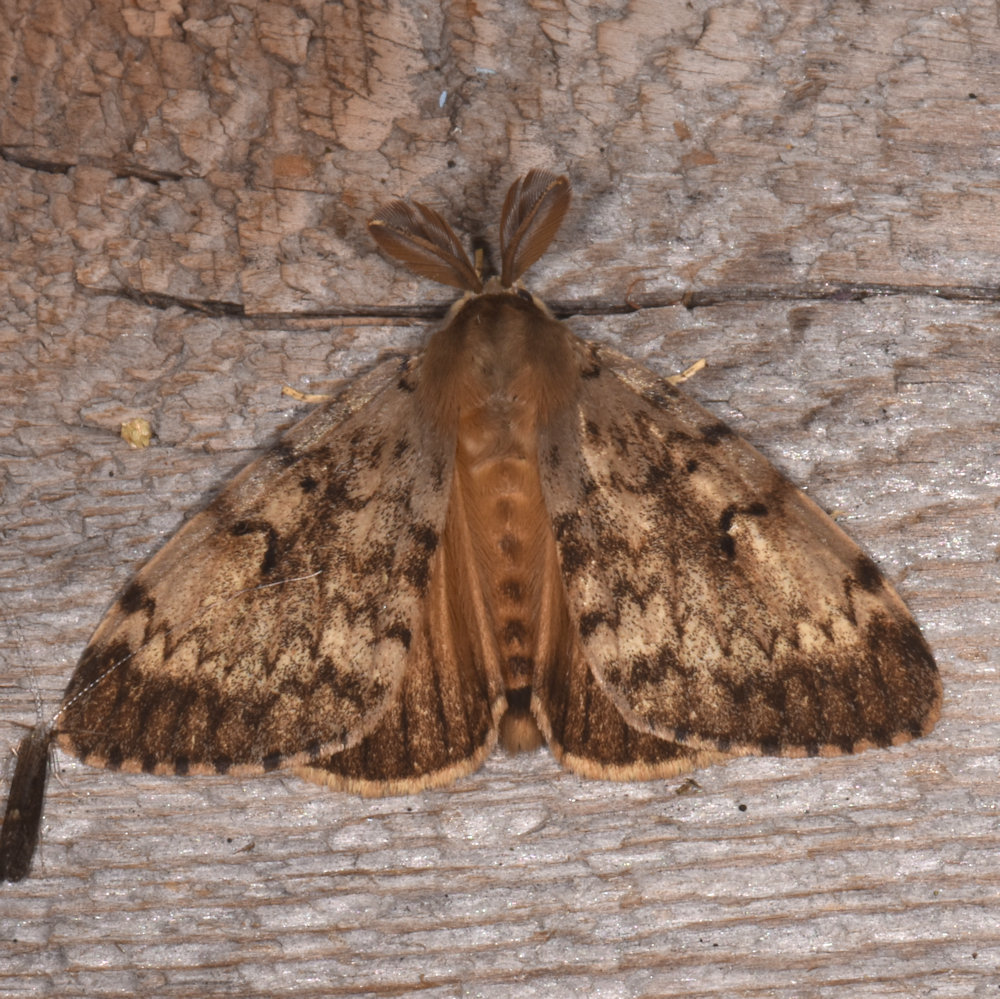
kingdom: Animalia
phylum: Arthropoda
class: Insecta
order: Lepidoptera
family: Erebidae
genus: Lymantria
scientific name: Lymantria dispar
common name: Gypsy moth
